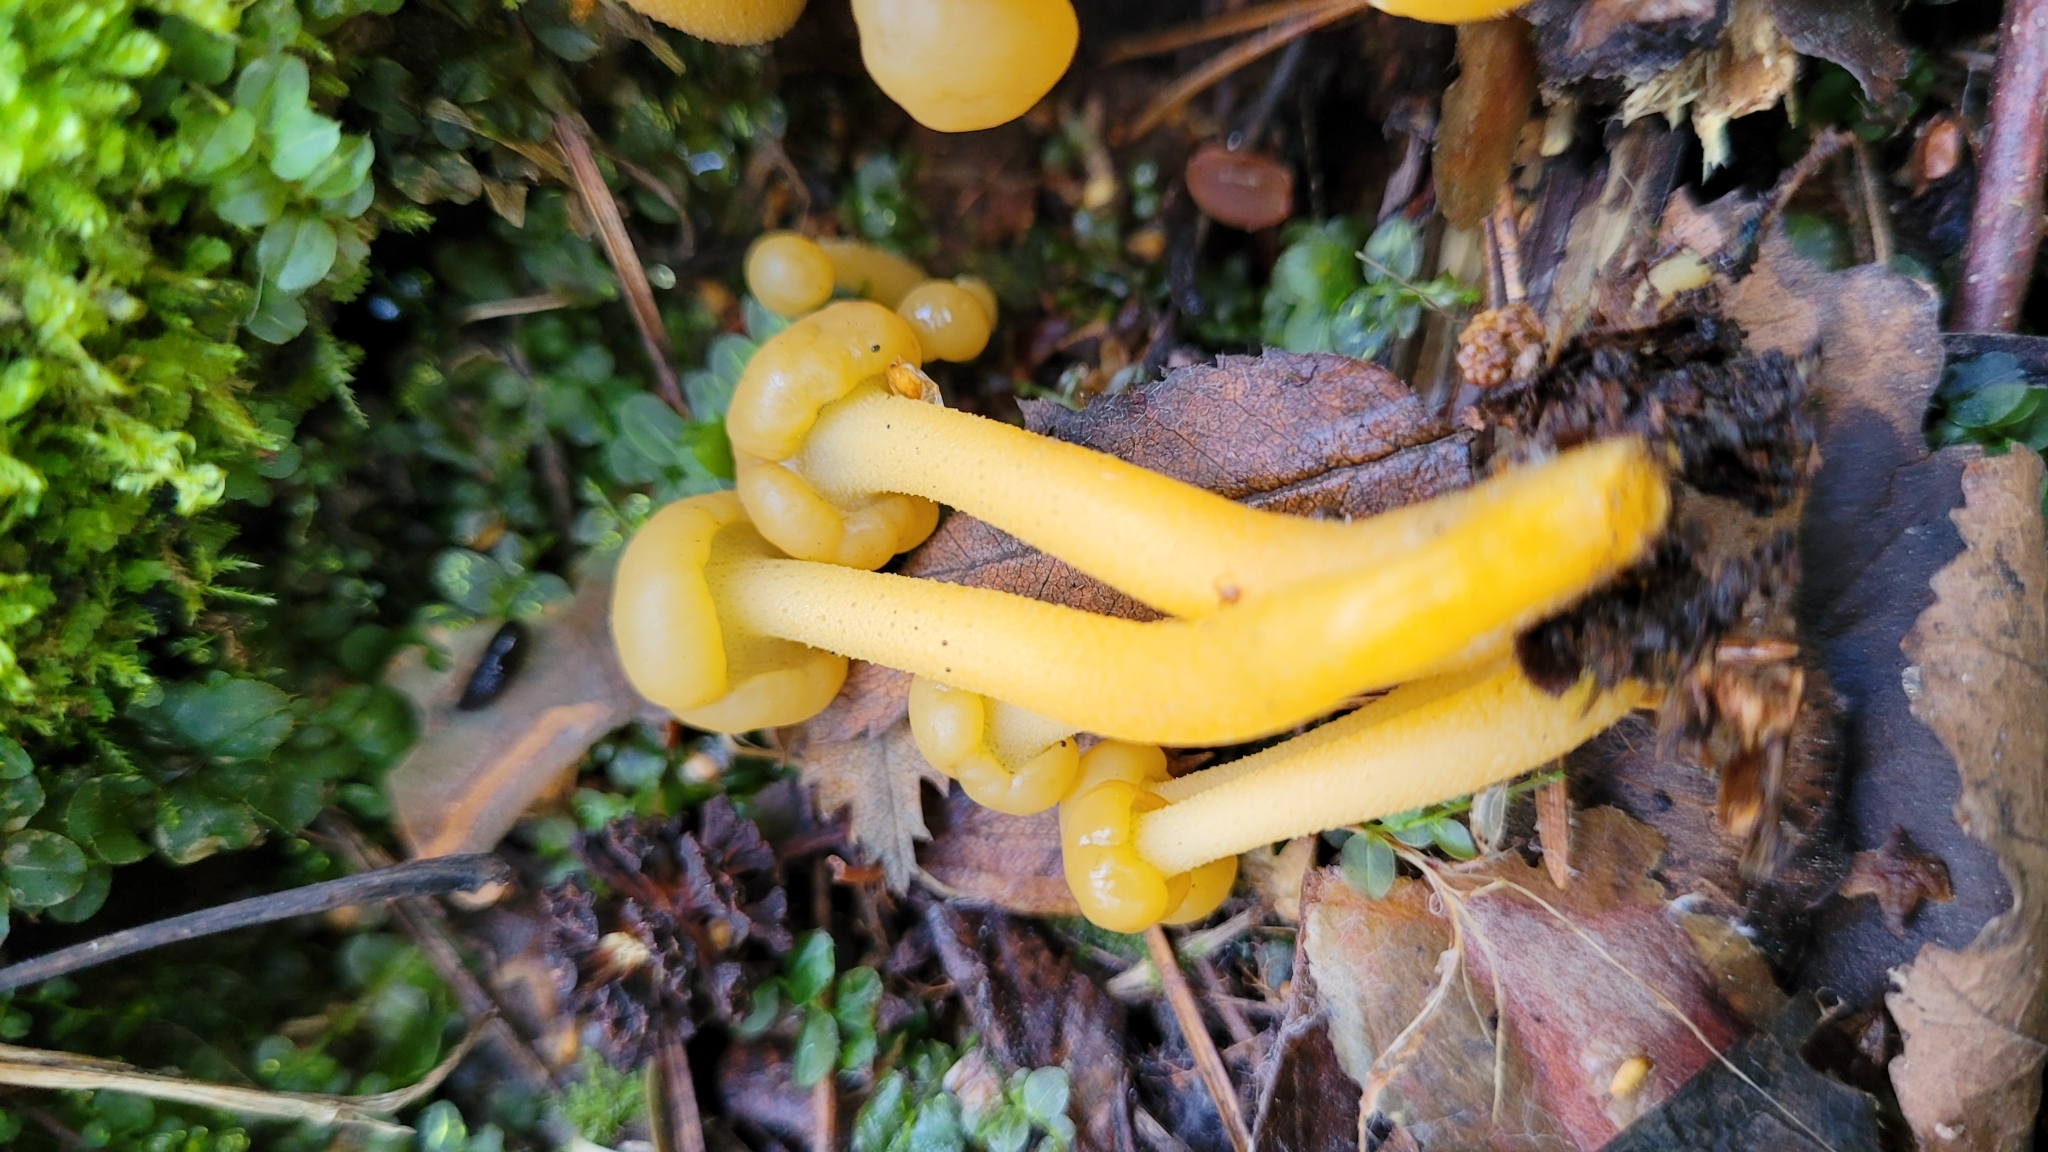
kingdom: Fungi
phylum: Ascomycota
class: Leotiomycetes
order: Leotiales
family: Leotiaceae
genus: Leotia
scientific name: Leotia lubrica
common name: Jellybaby
